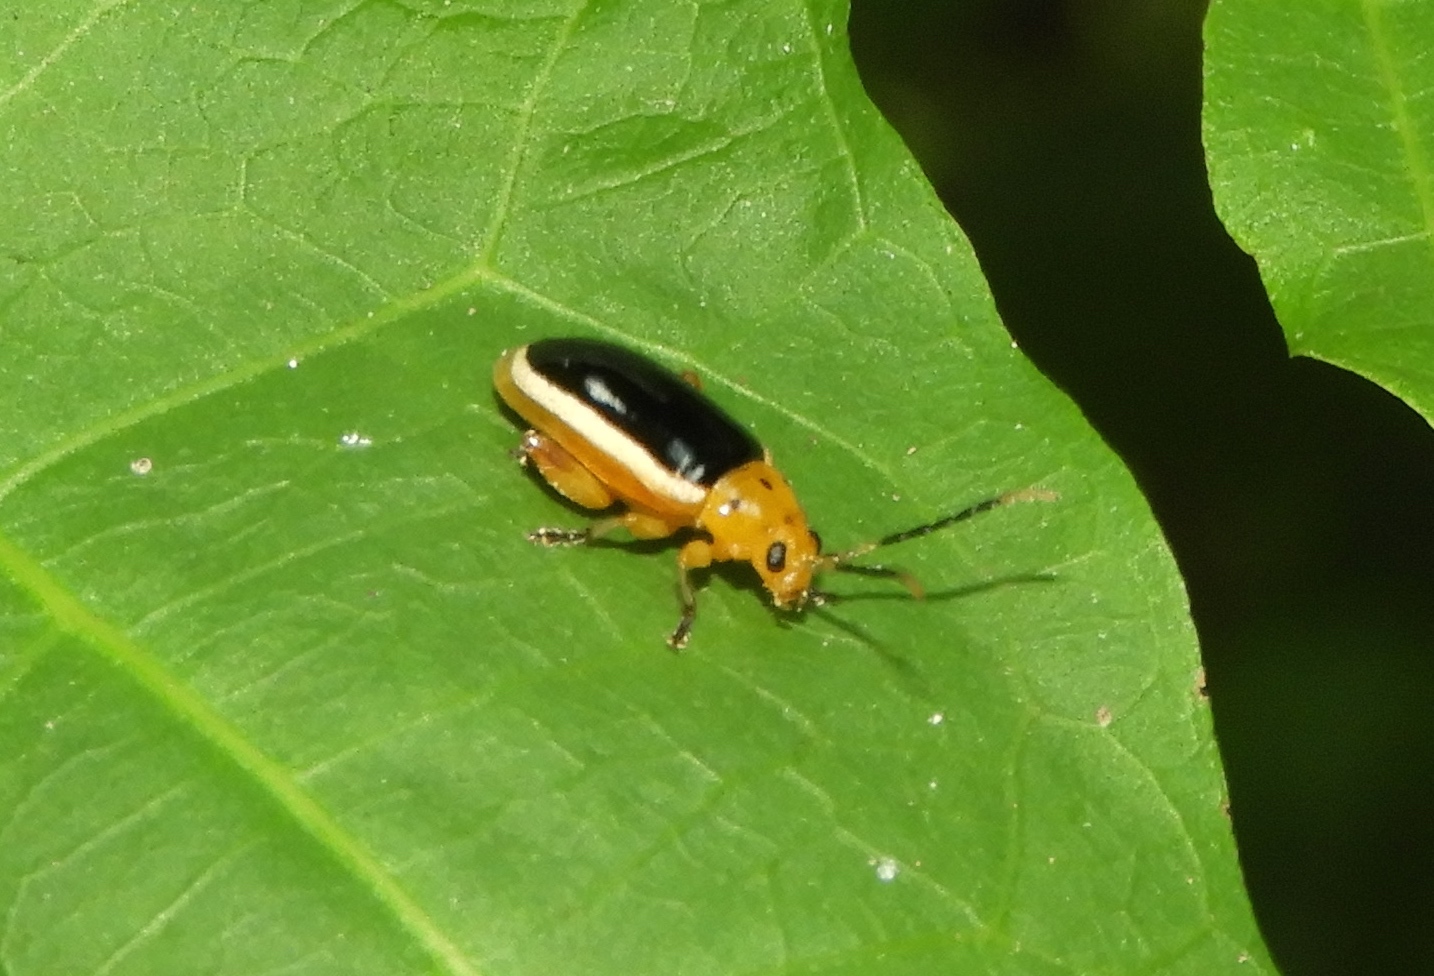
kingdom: Animalia
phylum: Arthropoda
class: Insecta
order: Coleoptera
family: Chrysomelidae
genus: Disonycha
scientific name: Disonycha
